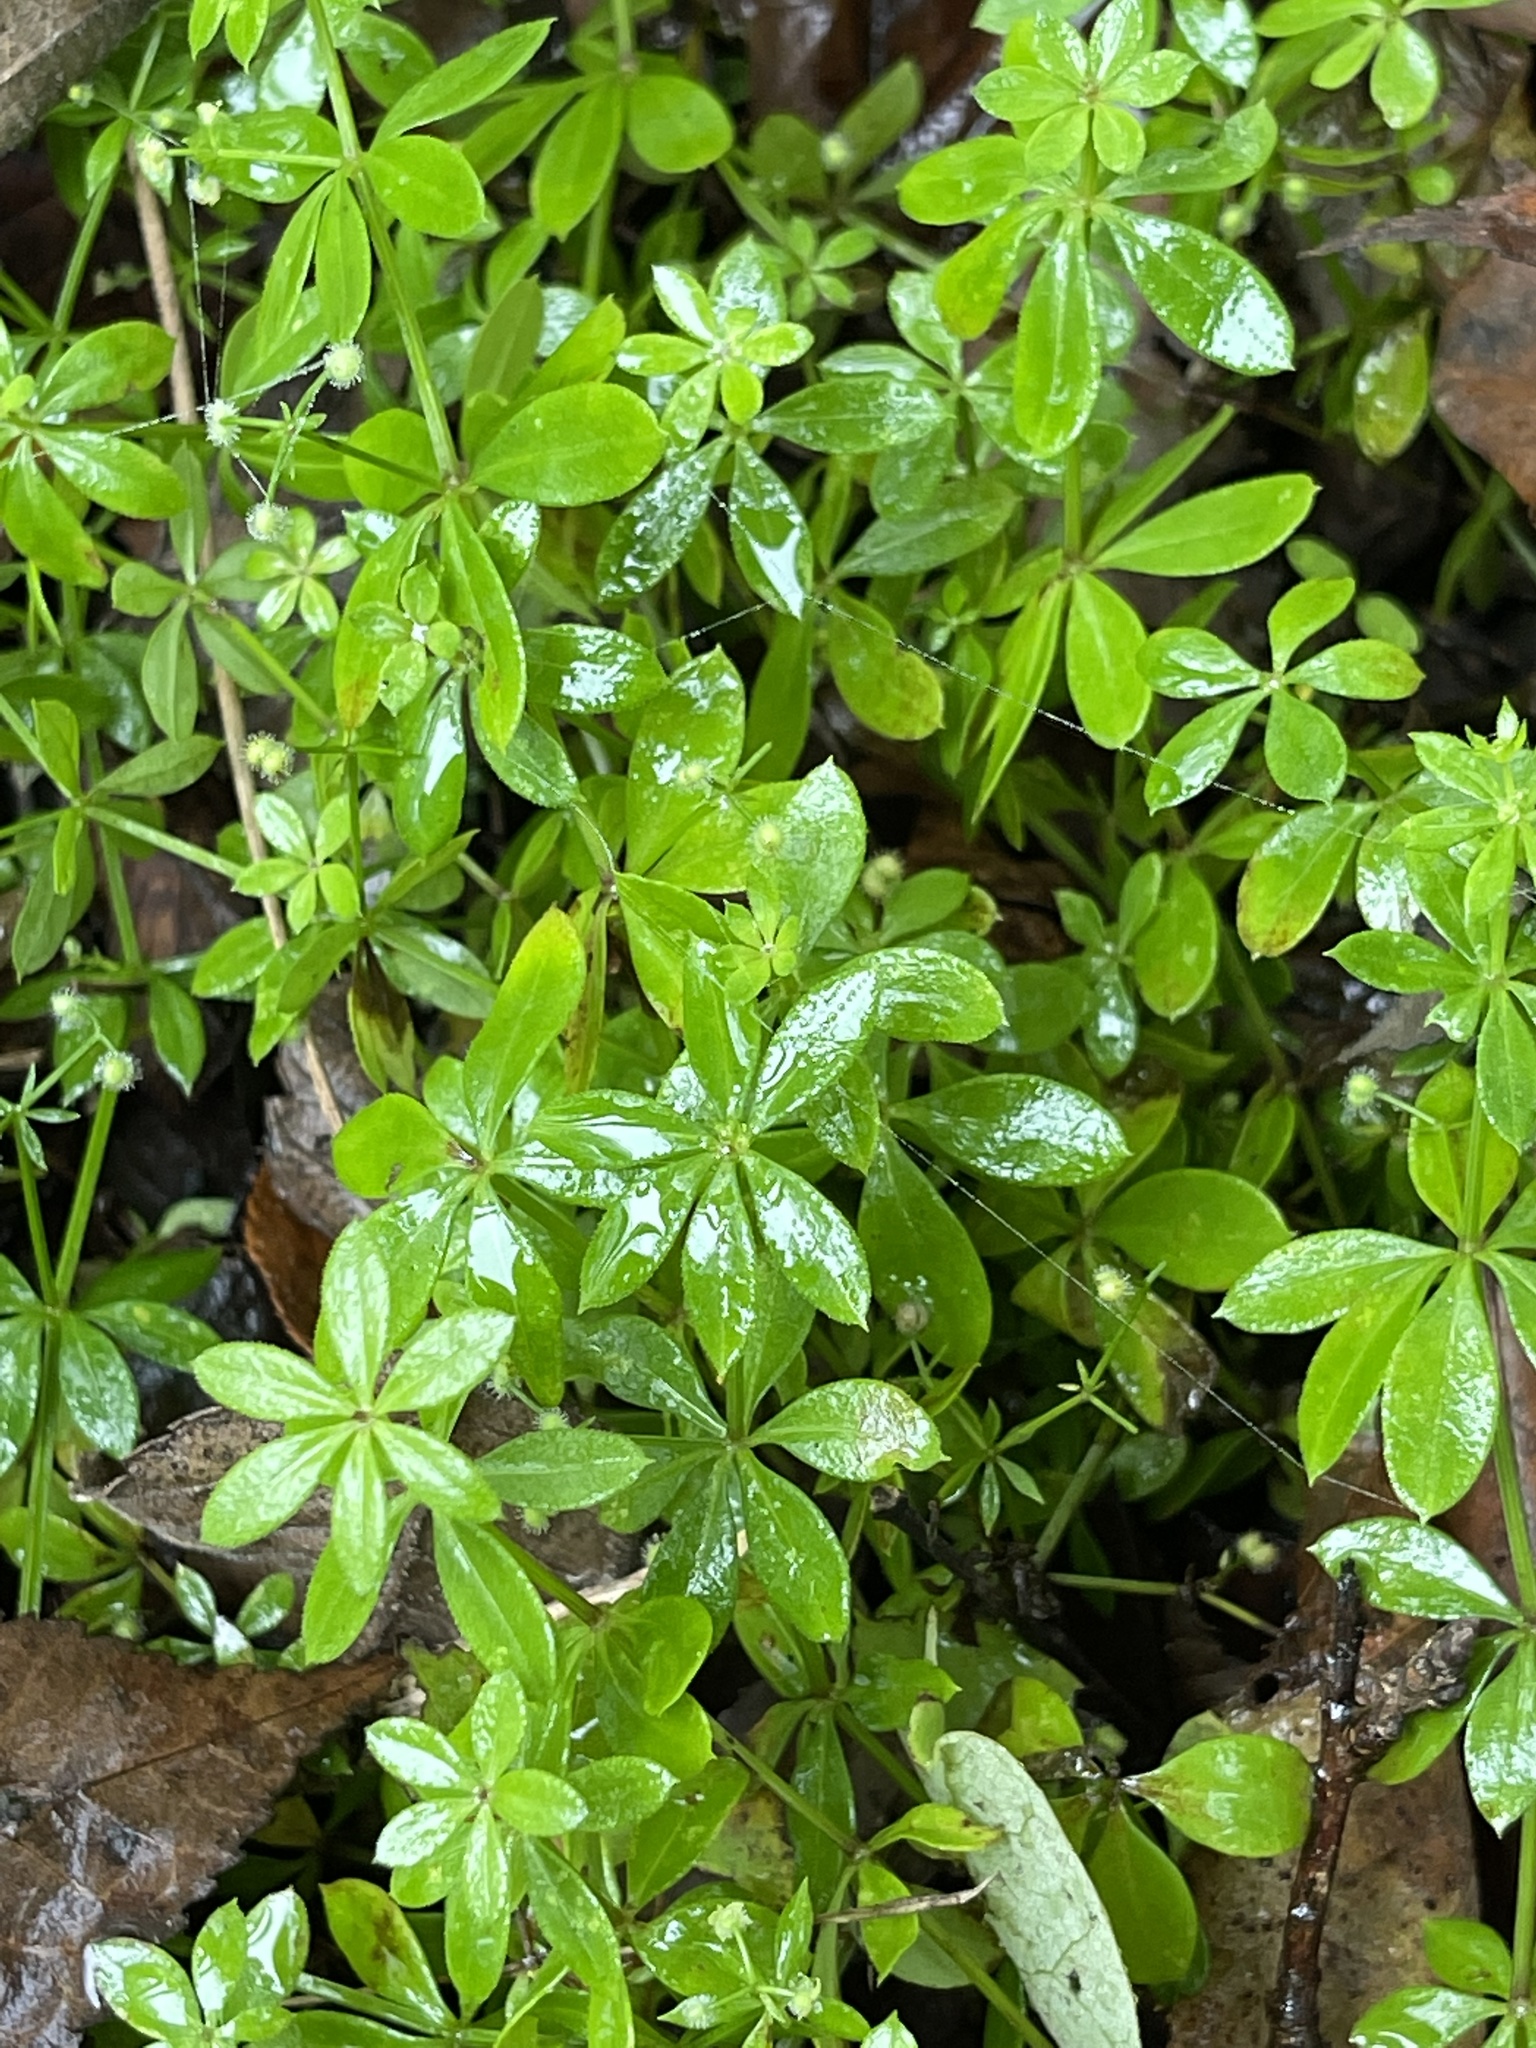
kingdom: Plantae
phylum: Tracheophyta
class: Magnoliopsida
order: Gentianales
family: Rubiaceae
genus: Galium
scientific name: Galium triflorum
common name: Fragrant bedstraw
